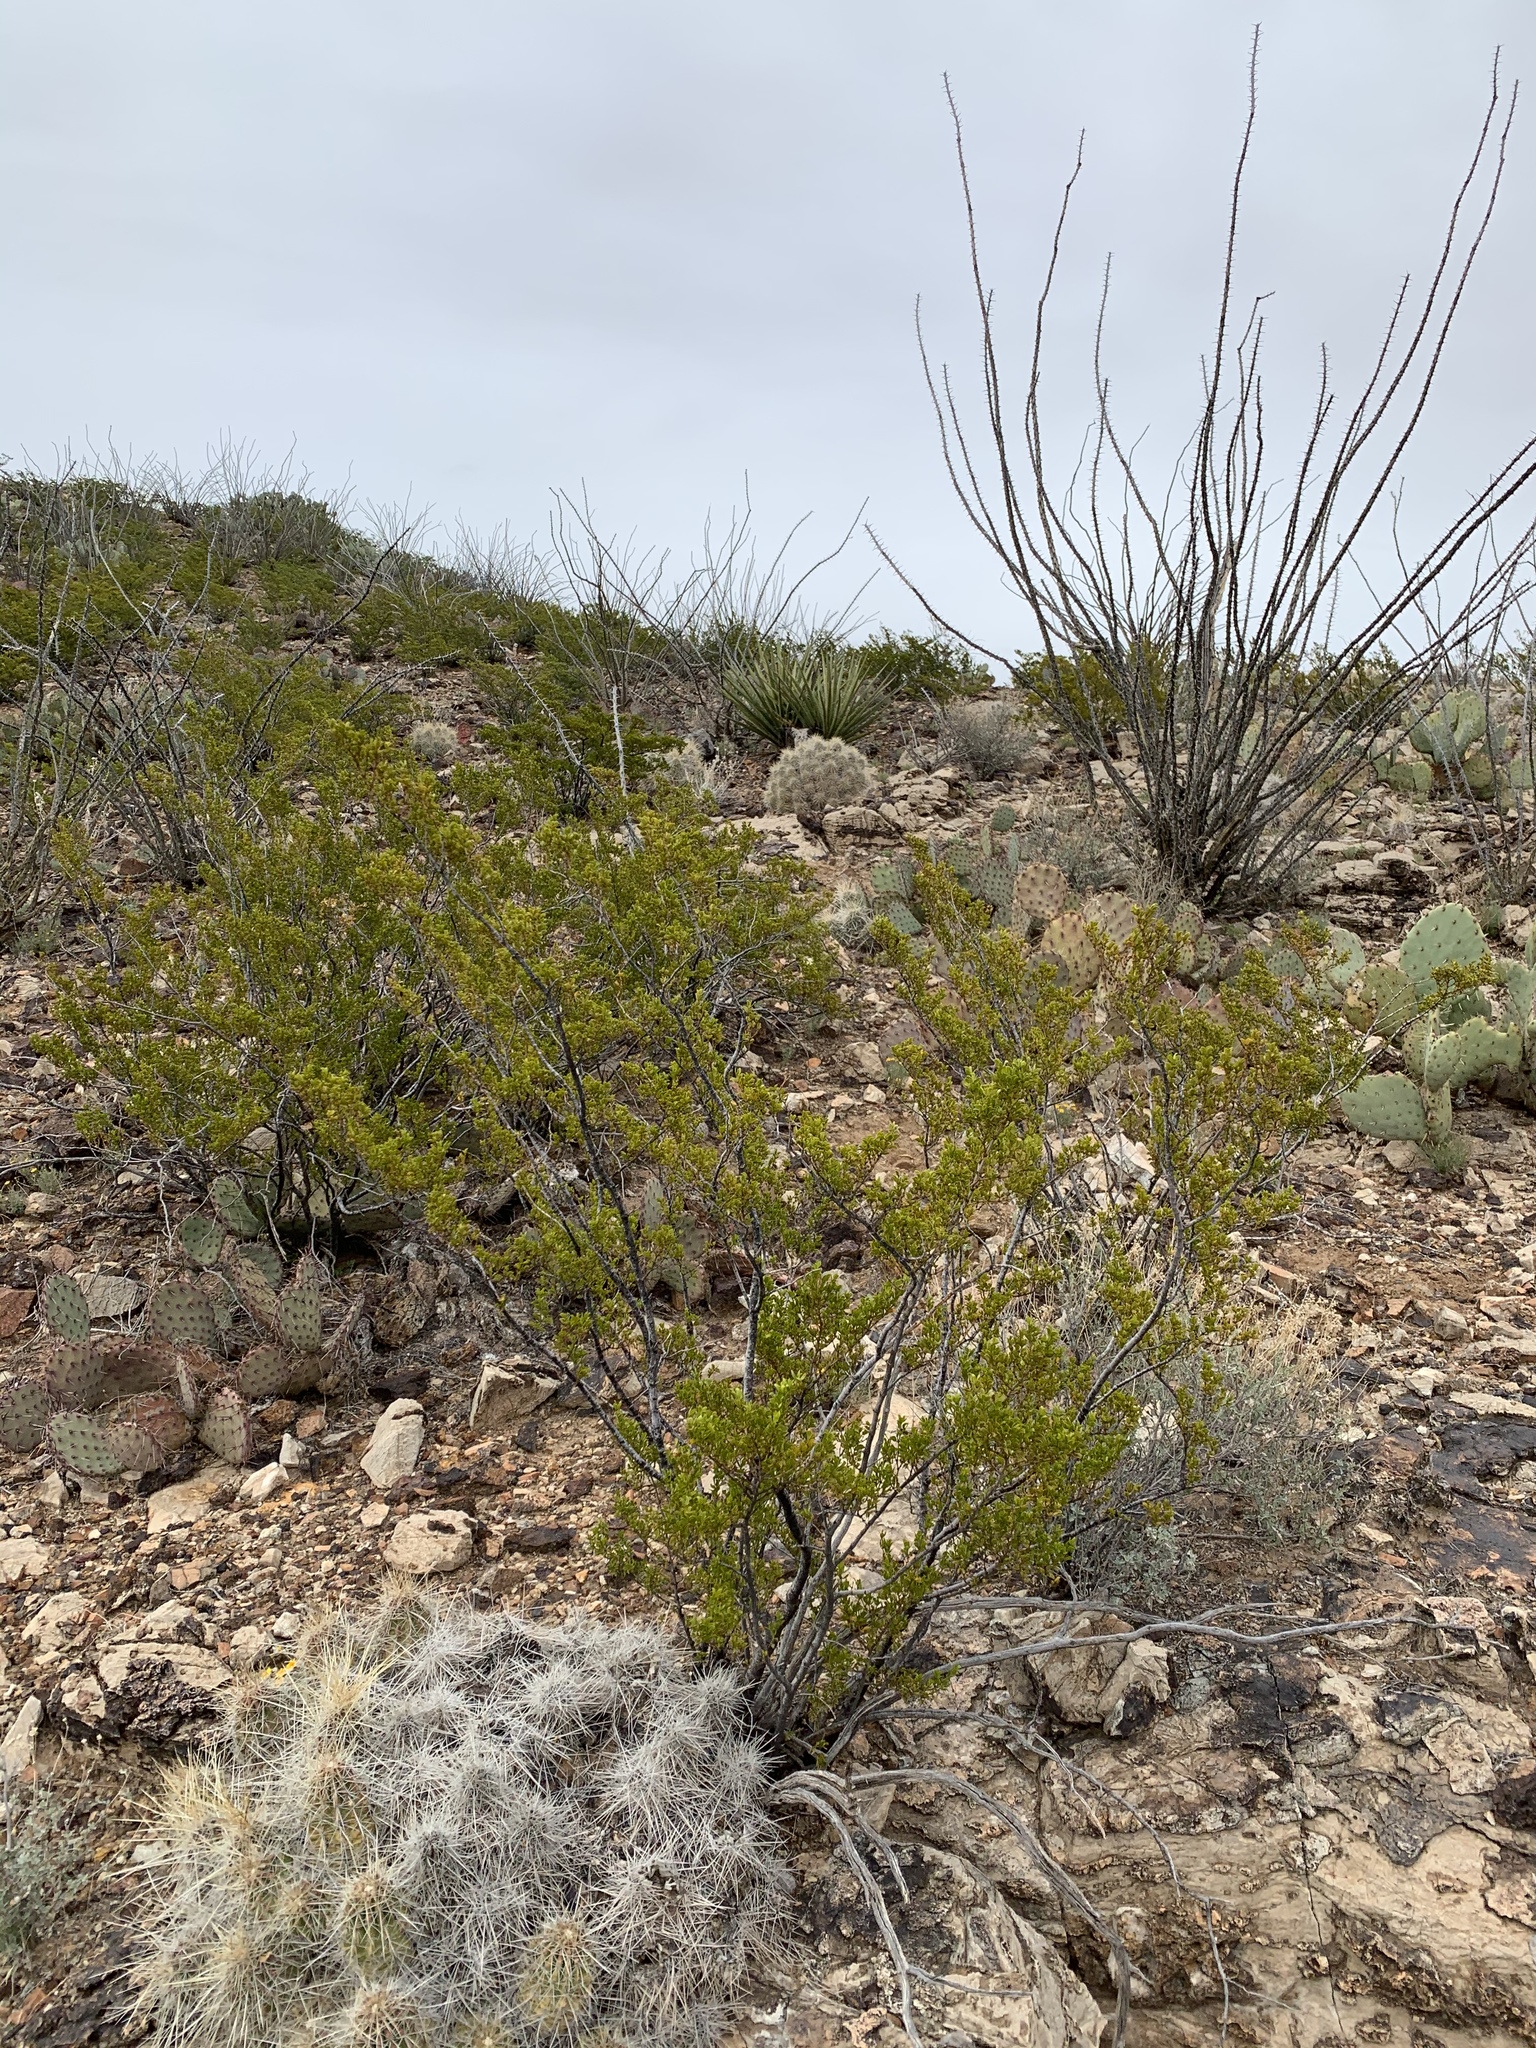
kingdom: Plantae
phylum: Tracheophyta
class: Magnoliopsida
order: Zygophyllales
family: Zygophyllaceae
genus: Larrea
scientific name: Larrea tridentata
